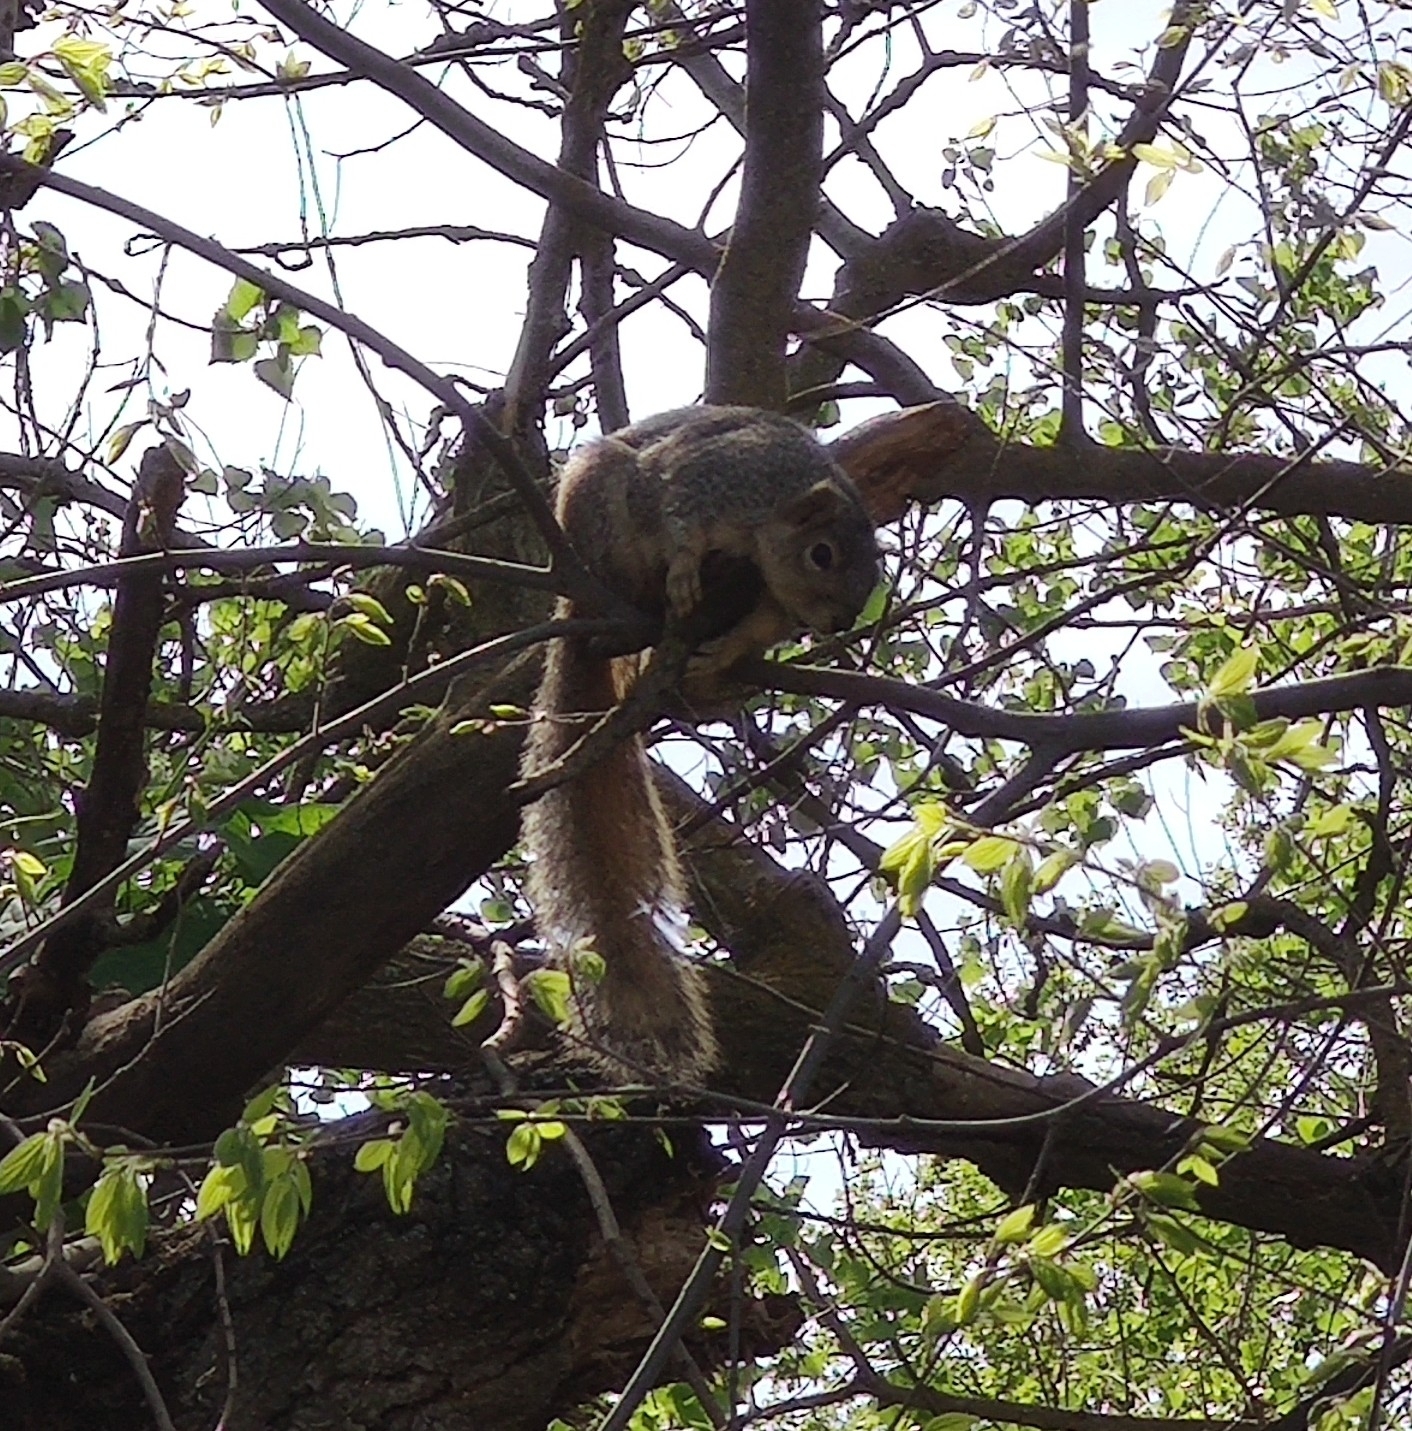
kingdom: Animalia
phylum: Chordata
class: Mammalia
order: Rodentia
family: Sciuridae
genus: Sciurus
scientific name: Sciurus niger
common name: Fox squirrel
